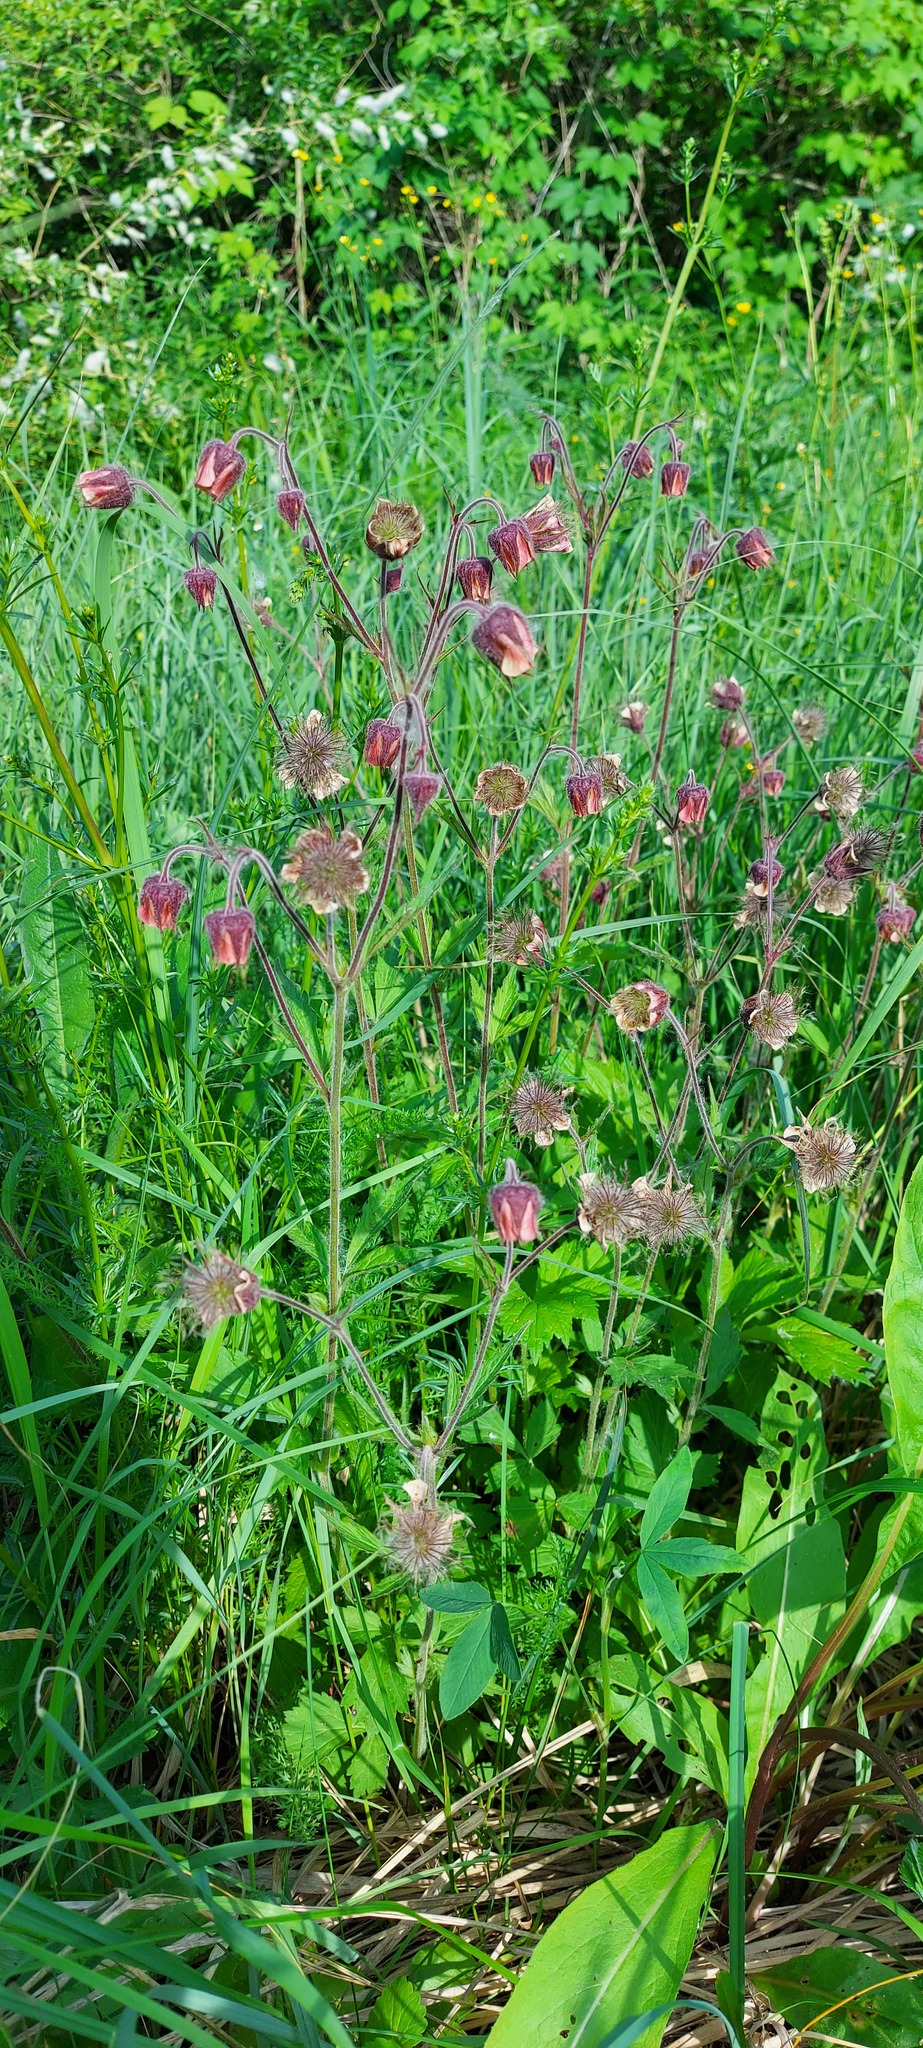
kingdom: Plantae
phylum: Tracheophyta
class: Magnoliopsida
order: Rosales
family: Rosaceae
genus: Geum
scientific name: Geum rivale
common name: Water avens
